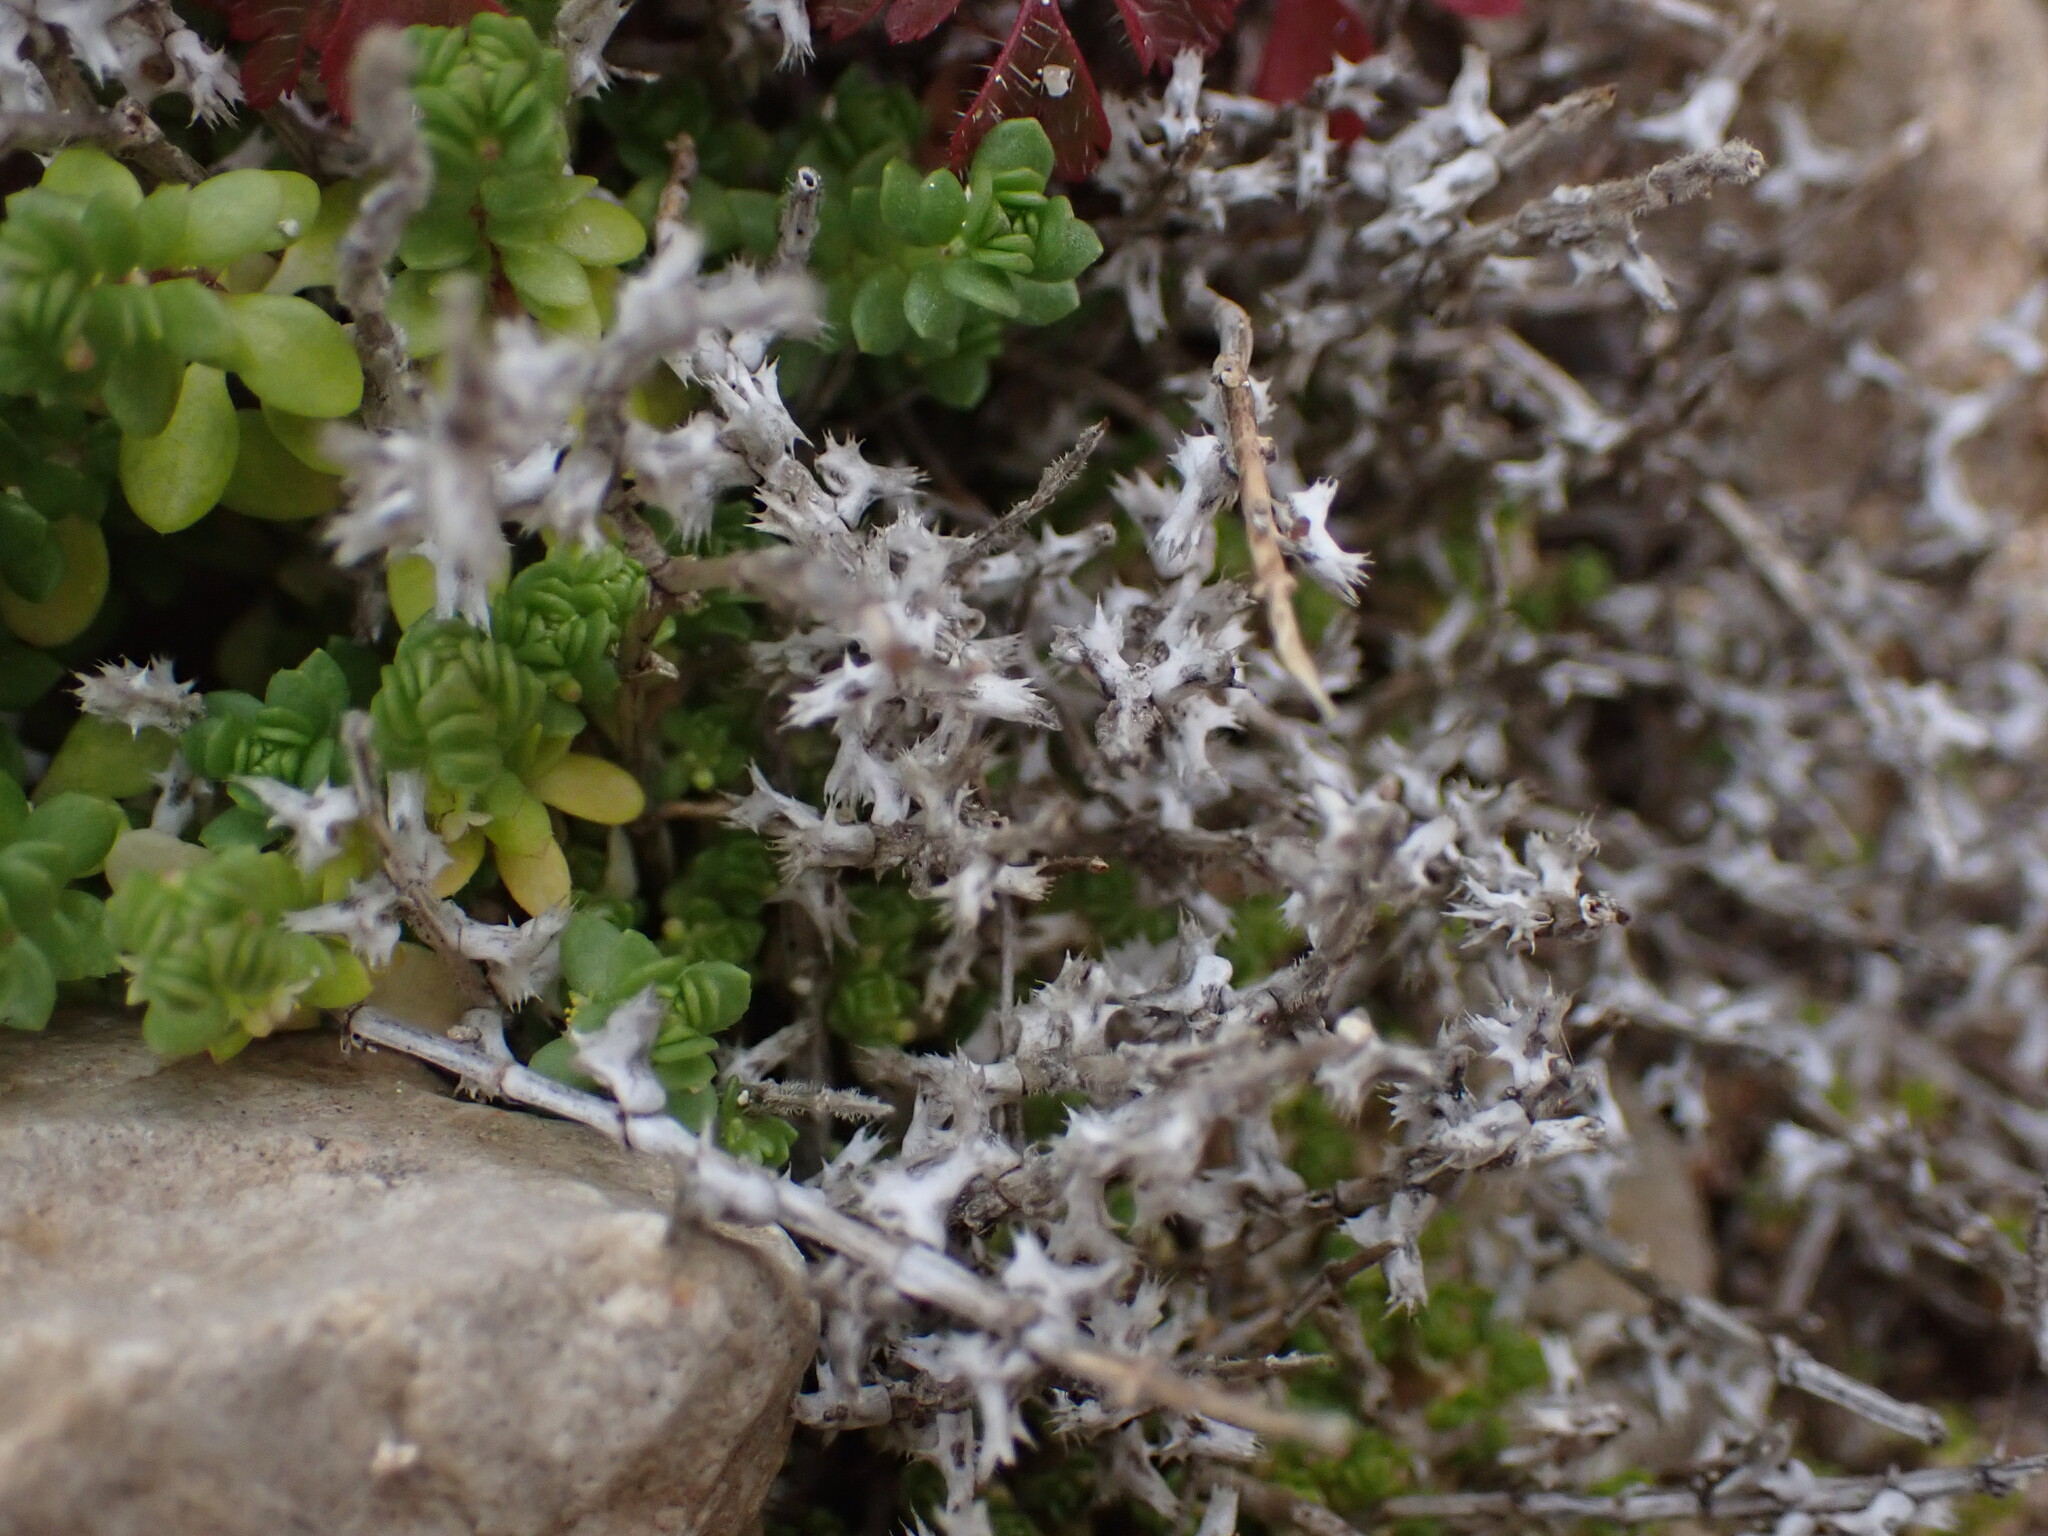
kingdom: Plantae
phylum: Tracheophyta
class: Magnoliopsida
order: Gentianales
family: Rubiaceae
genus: Valantia
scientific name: Valantia muralis
